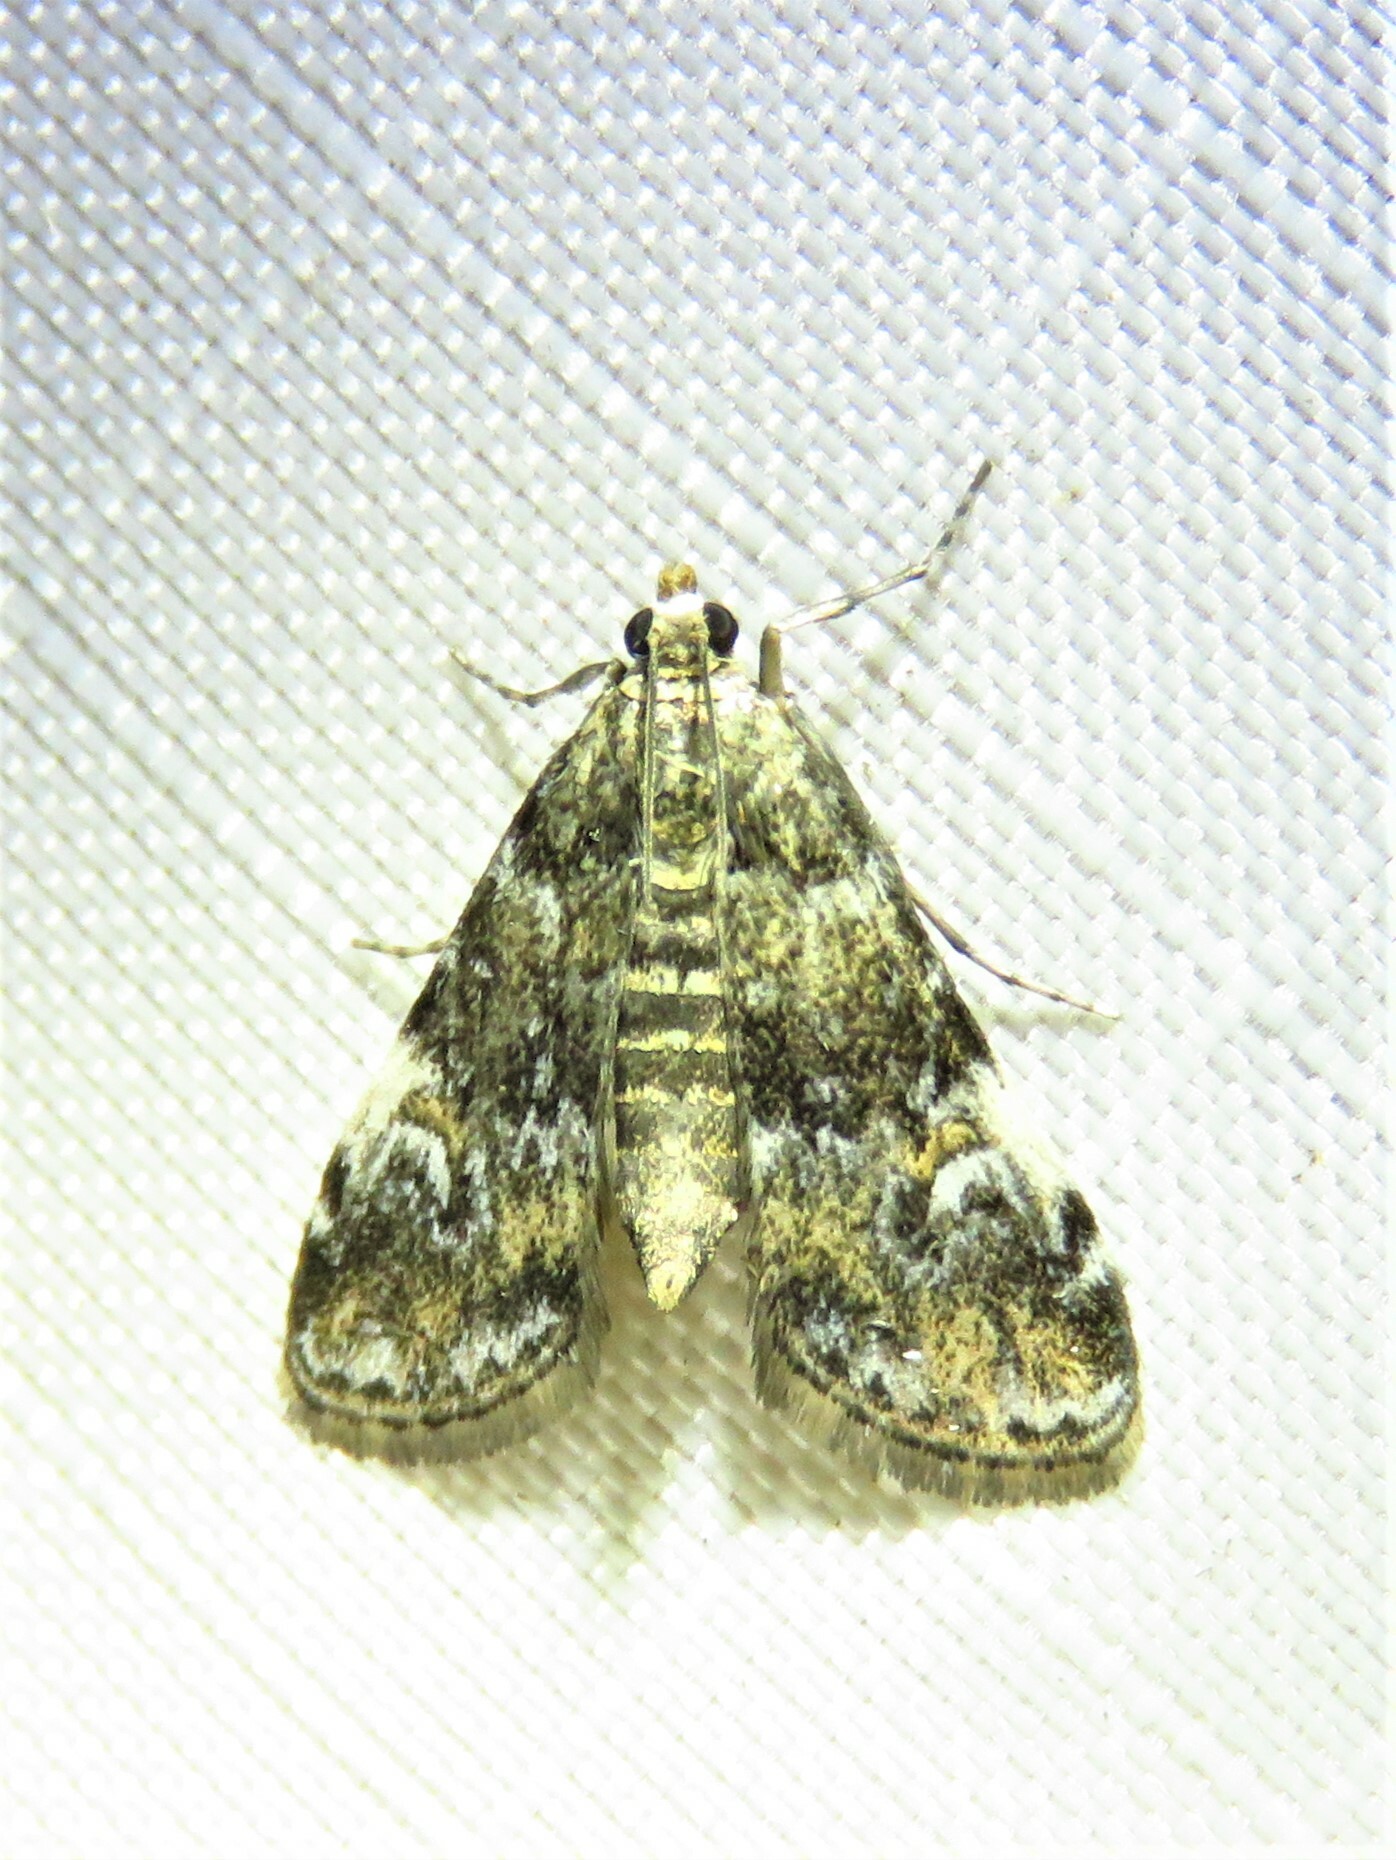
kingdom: Animalia
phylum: Arthropoda
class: Insecta
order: Lepidoptera
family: Crambidae
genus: Elophila
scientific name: Elophila obliteralis
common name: Waterlily leafcutter moth
